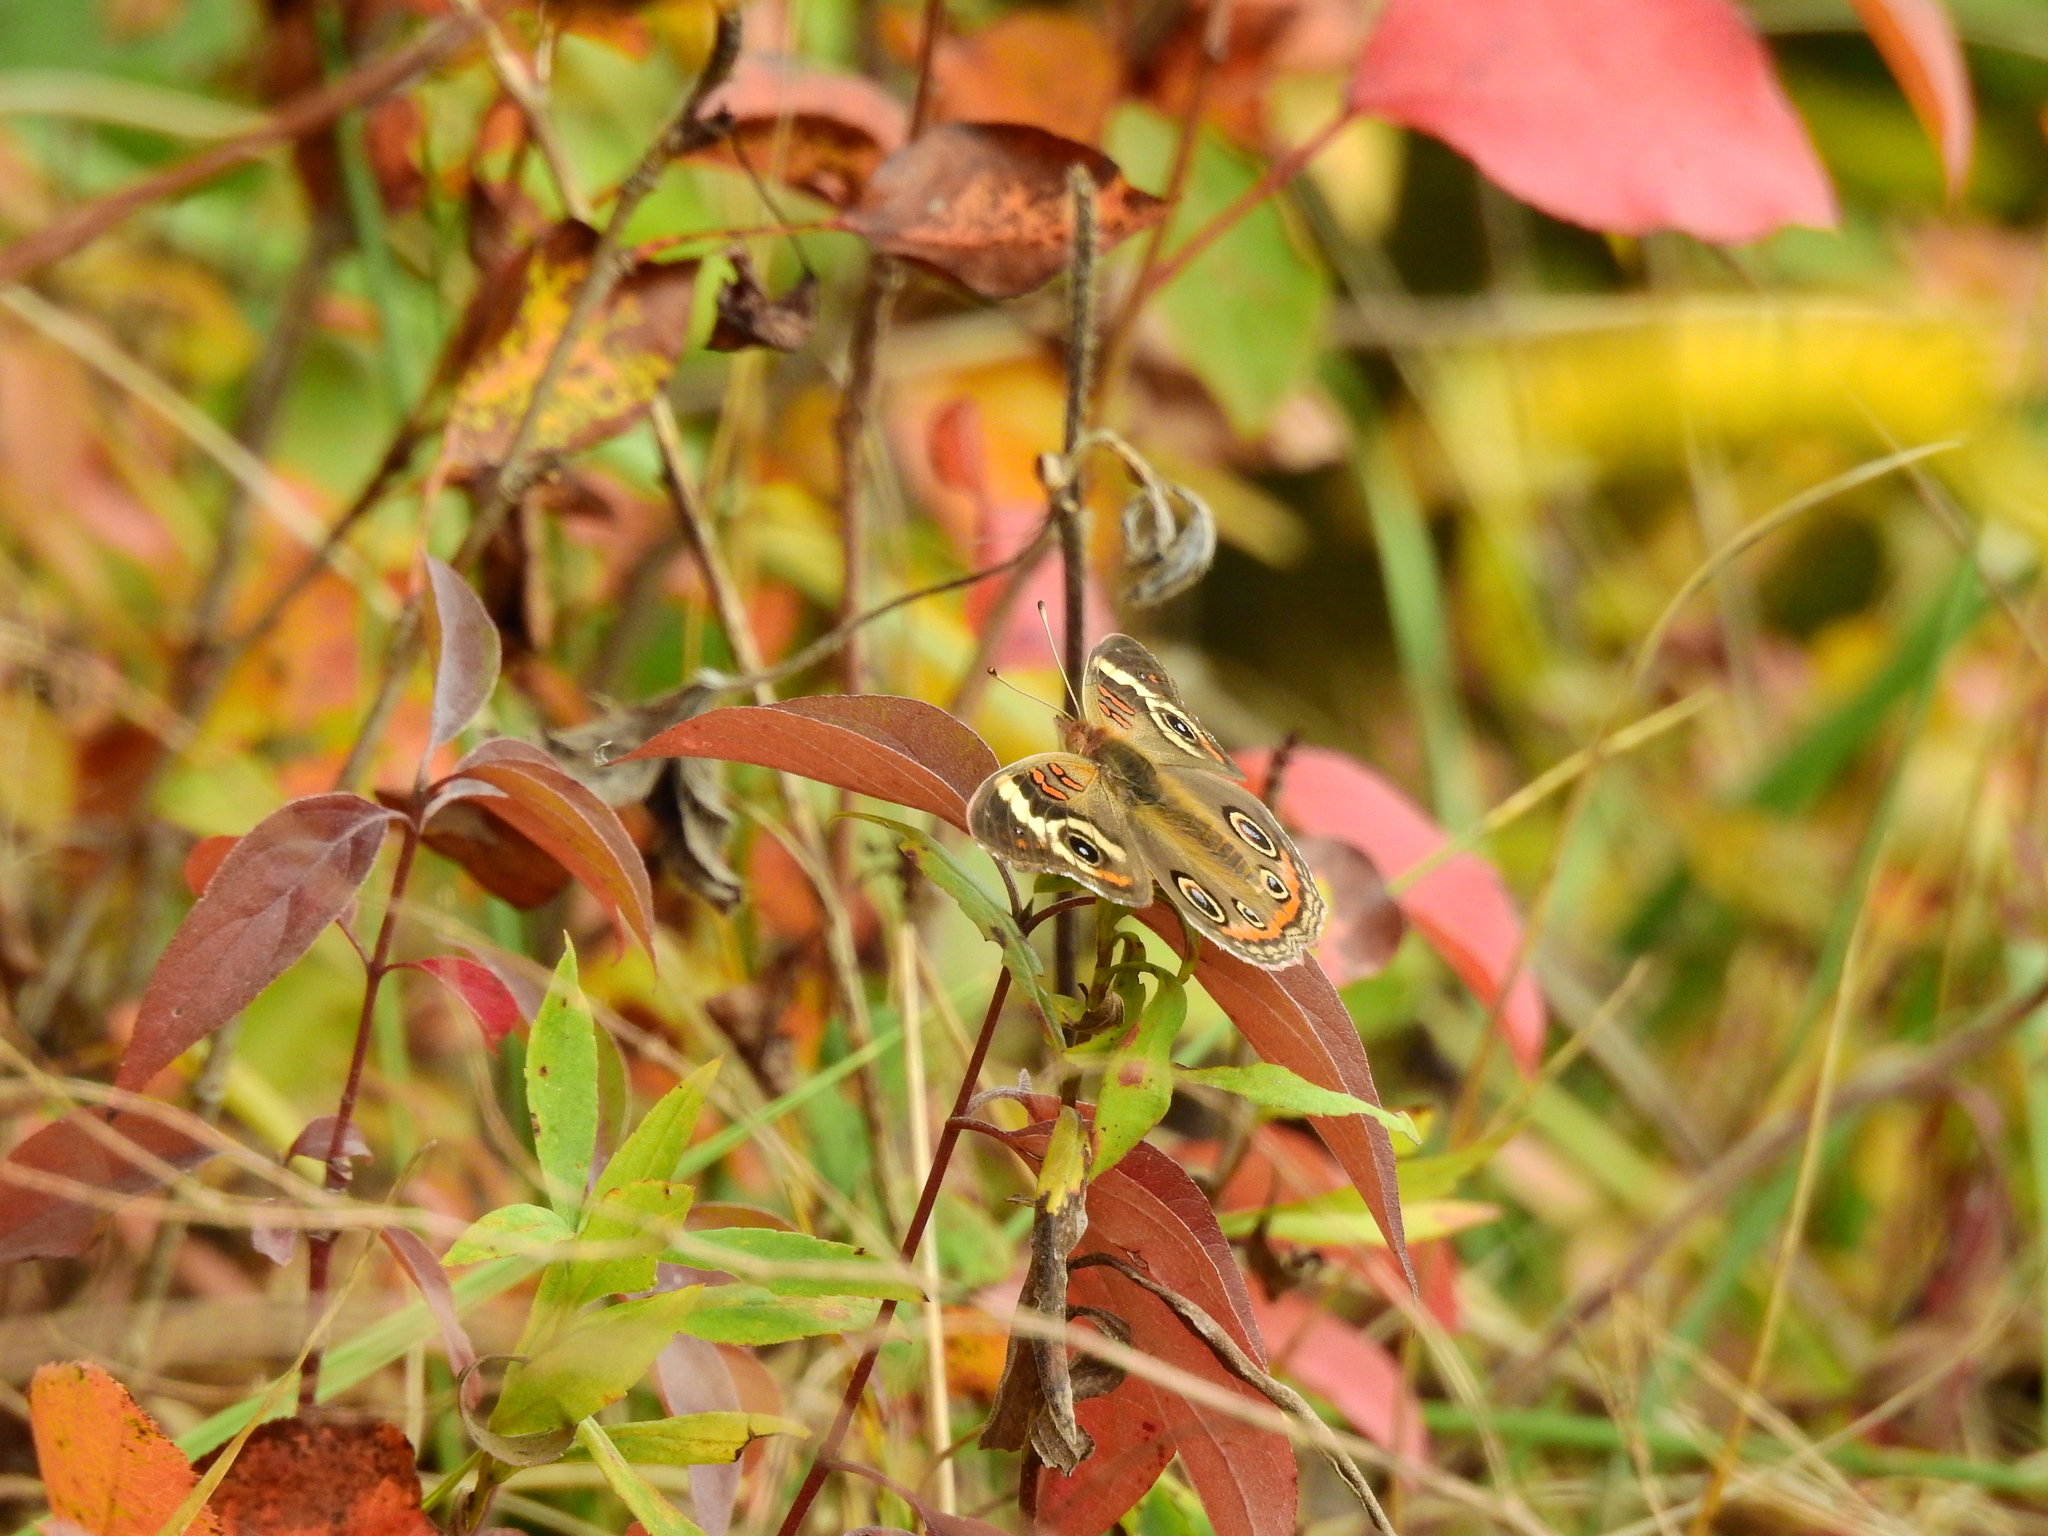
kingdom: Animalia
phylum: Arthropoda
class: Insecta
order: Lepidoptera
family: Nymphalidae
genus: Junonia
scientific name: Junonia coenia
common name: Common buckeye
